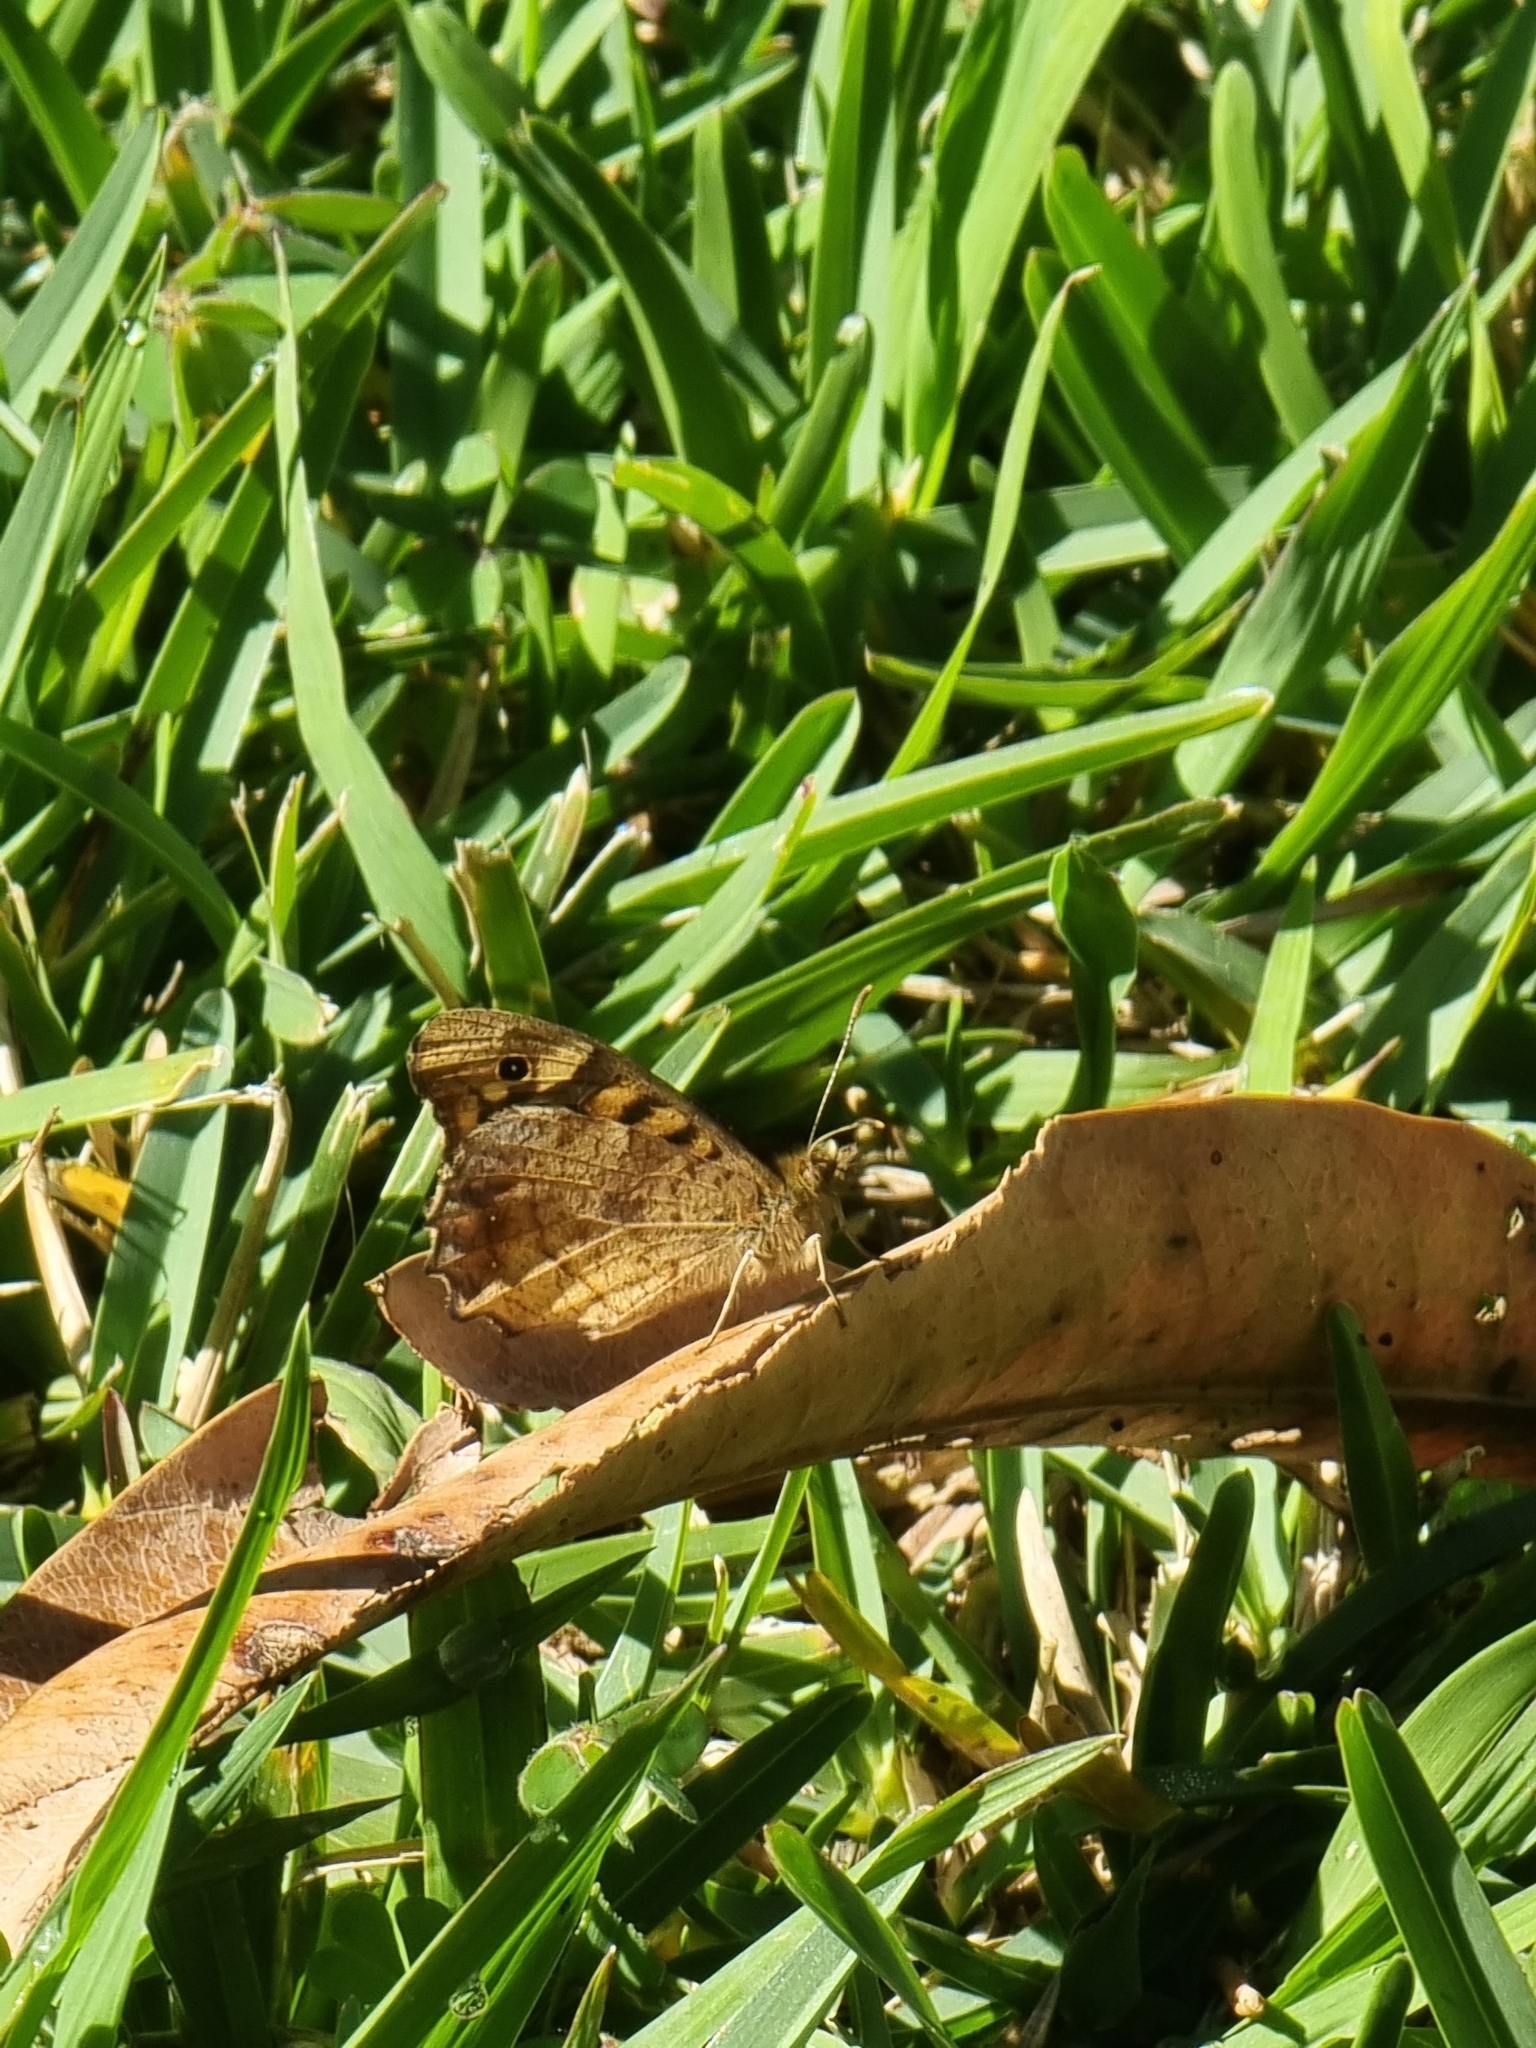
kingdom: Animalia
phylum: Arthropoda
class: Insecta
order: Lepidoptera
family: Nymphalidae
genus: Pararge
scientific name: Pararge aegeria
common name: Speckled wood
